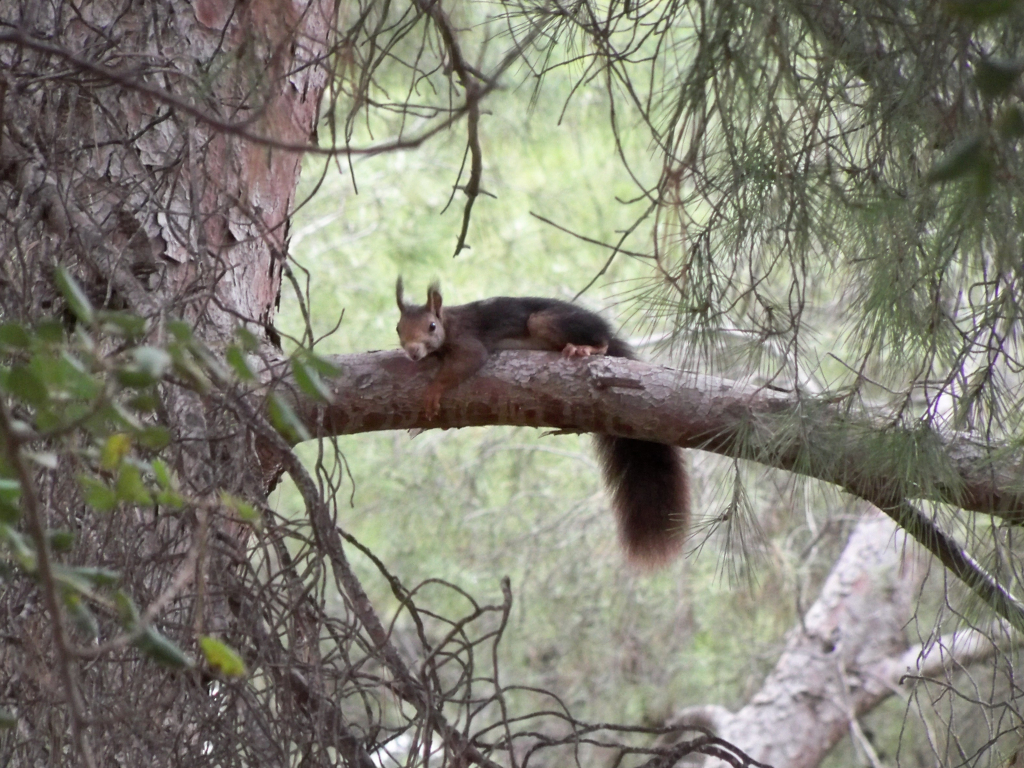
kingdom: Animalia
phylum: Chordata
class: Mammalia
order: Rodentia
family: Sciuridae
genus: Sciurus
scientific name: Sciurus vulgaris
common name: Eurasian red squirrel
